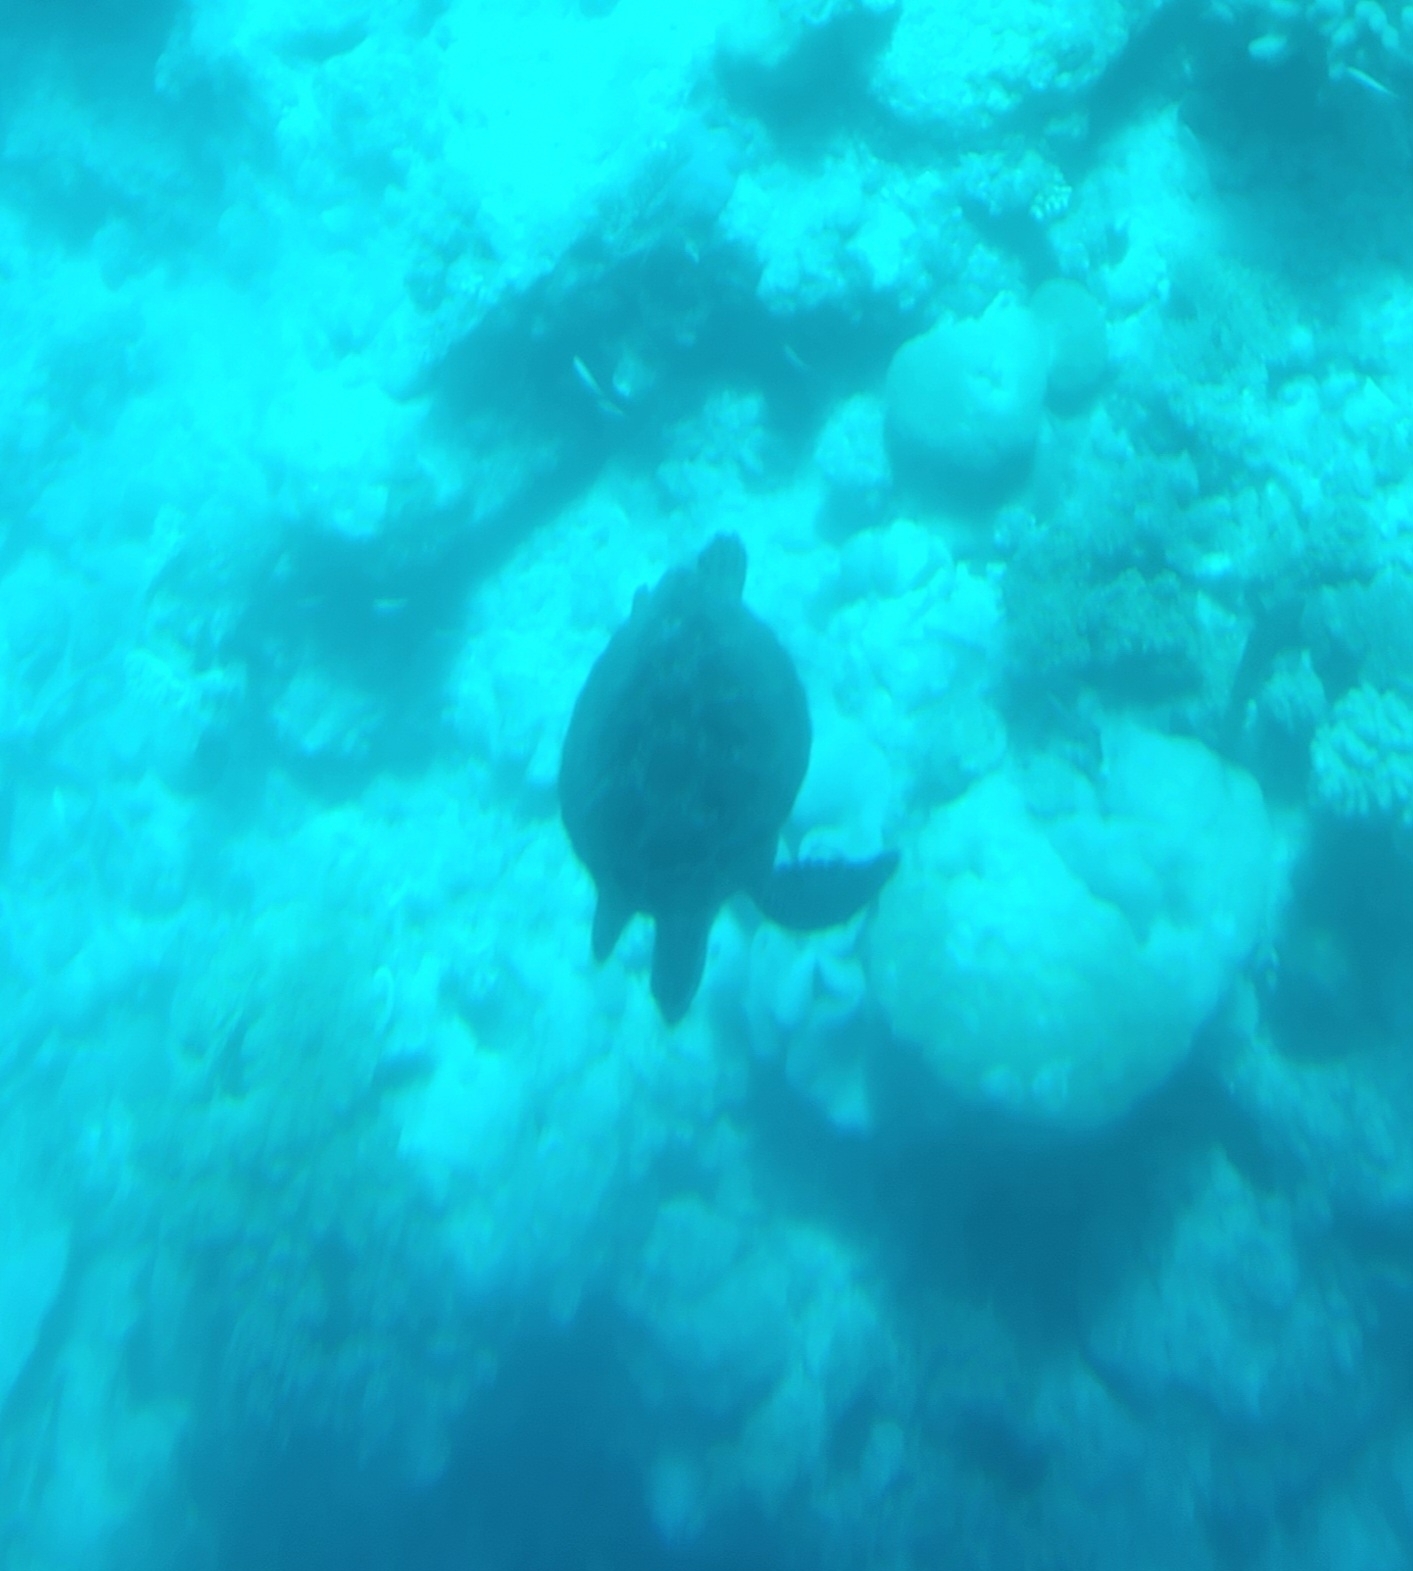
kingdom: Animalia
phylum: Chordata
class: Testudines
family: Cheloniidae
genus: Chelonia
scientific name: Chelonia mydas
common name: Green turtle
